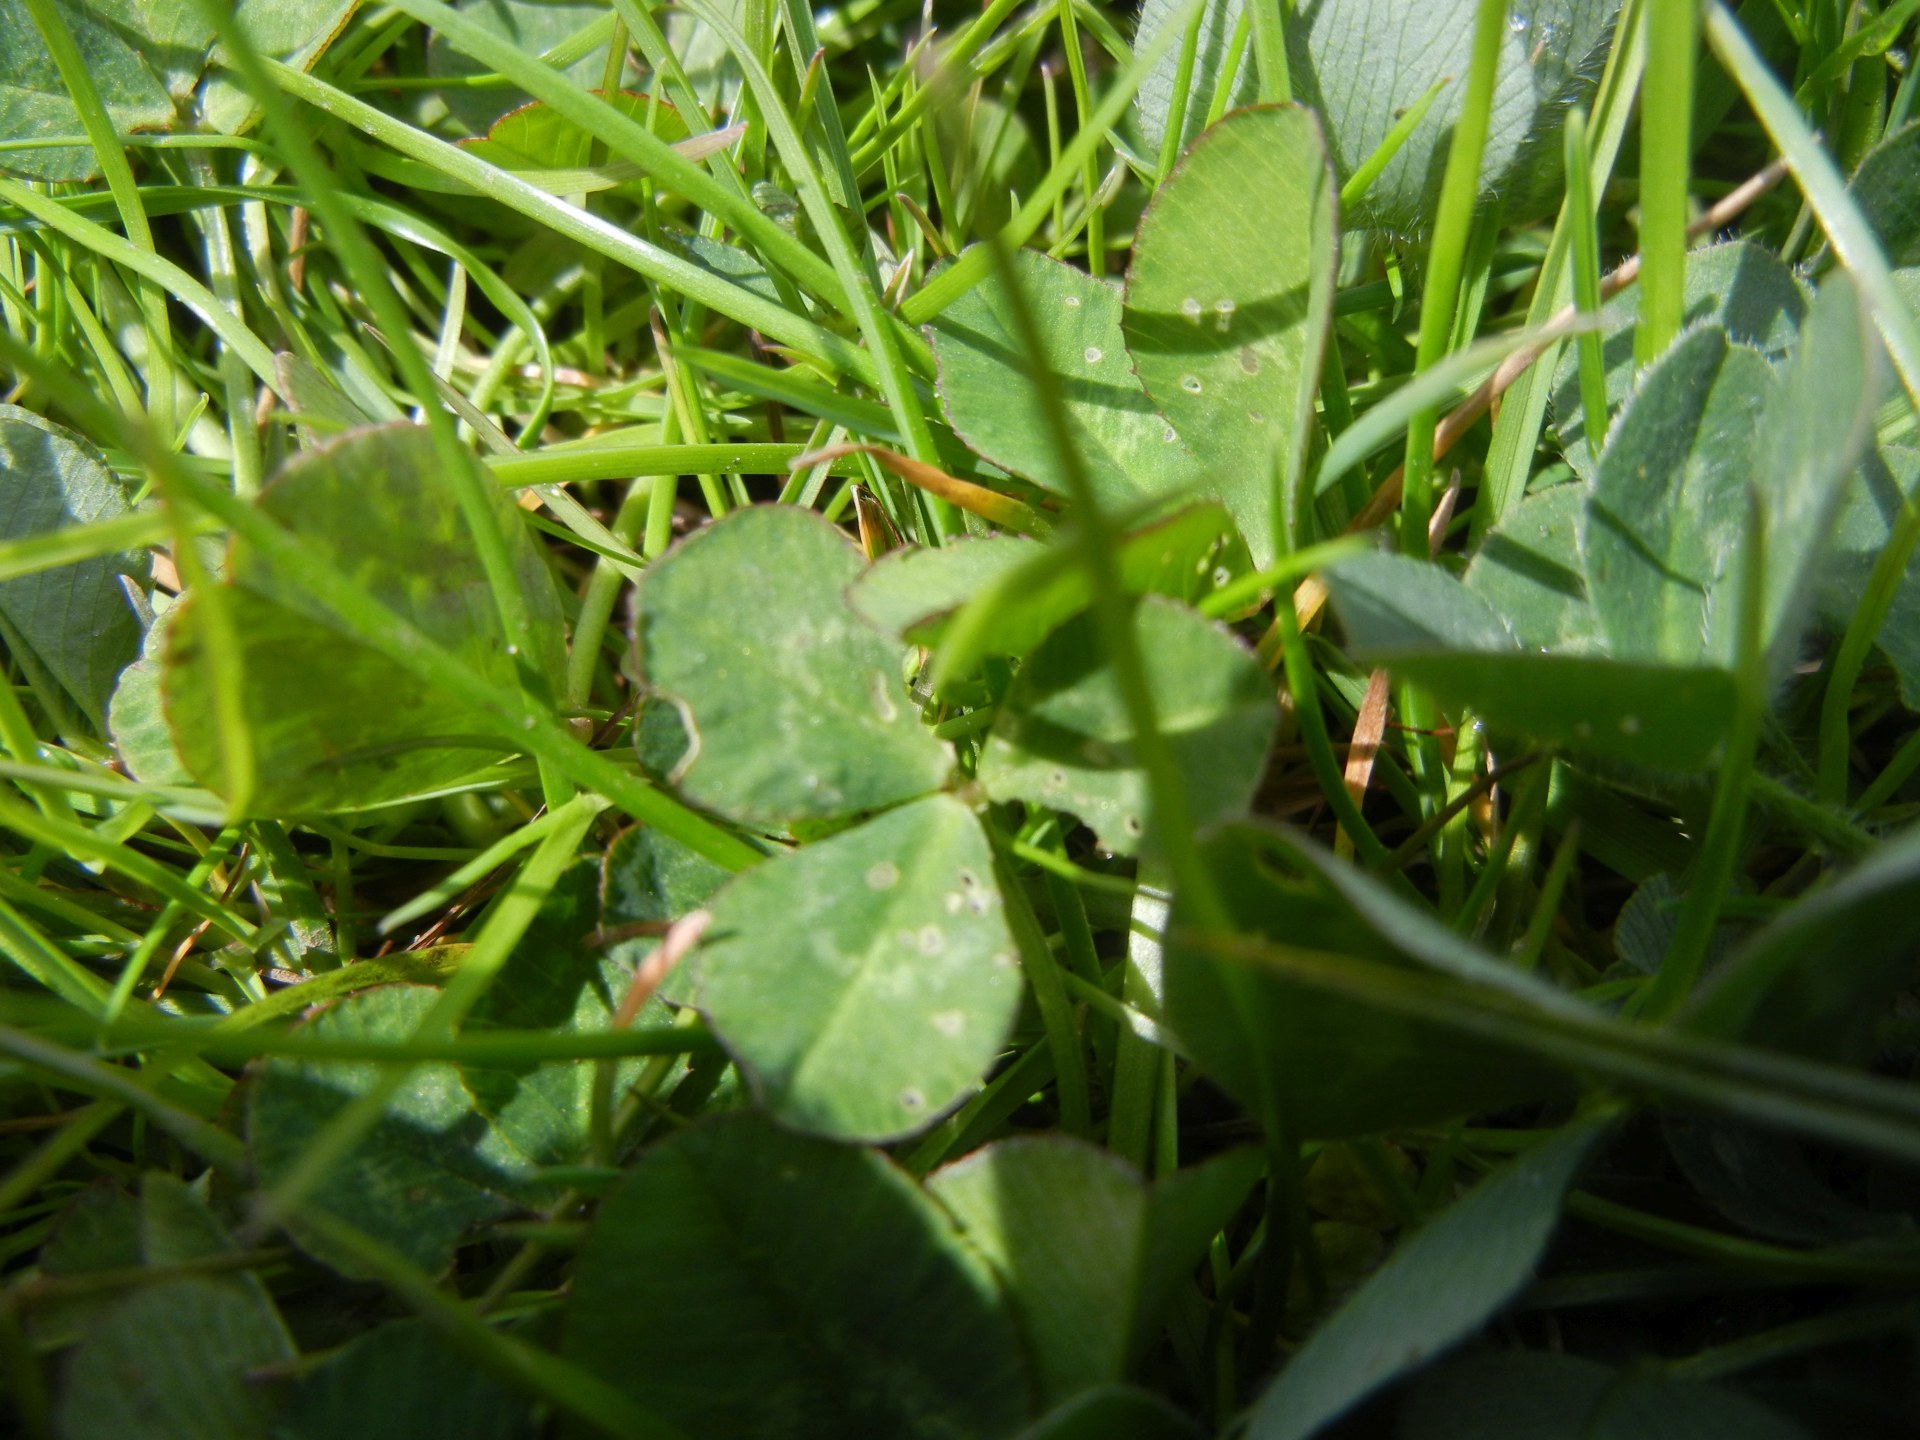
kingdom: Plantae
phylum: Tracheophyta
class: Magnoliopsida
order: Fabales
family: Fabaceae
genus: Trifolium
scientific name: Trifolium repens
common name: White clover
